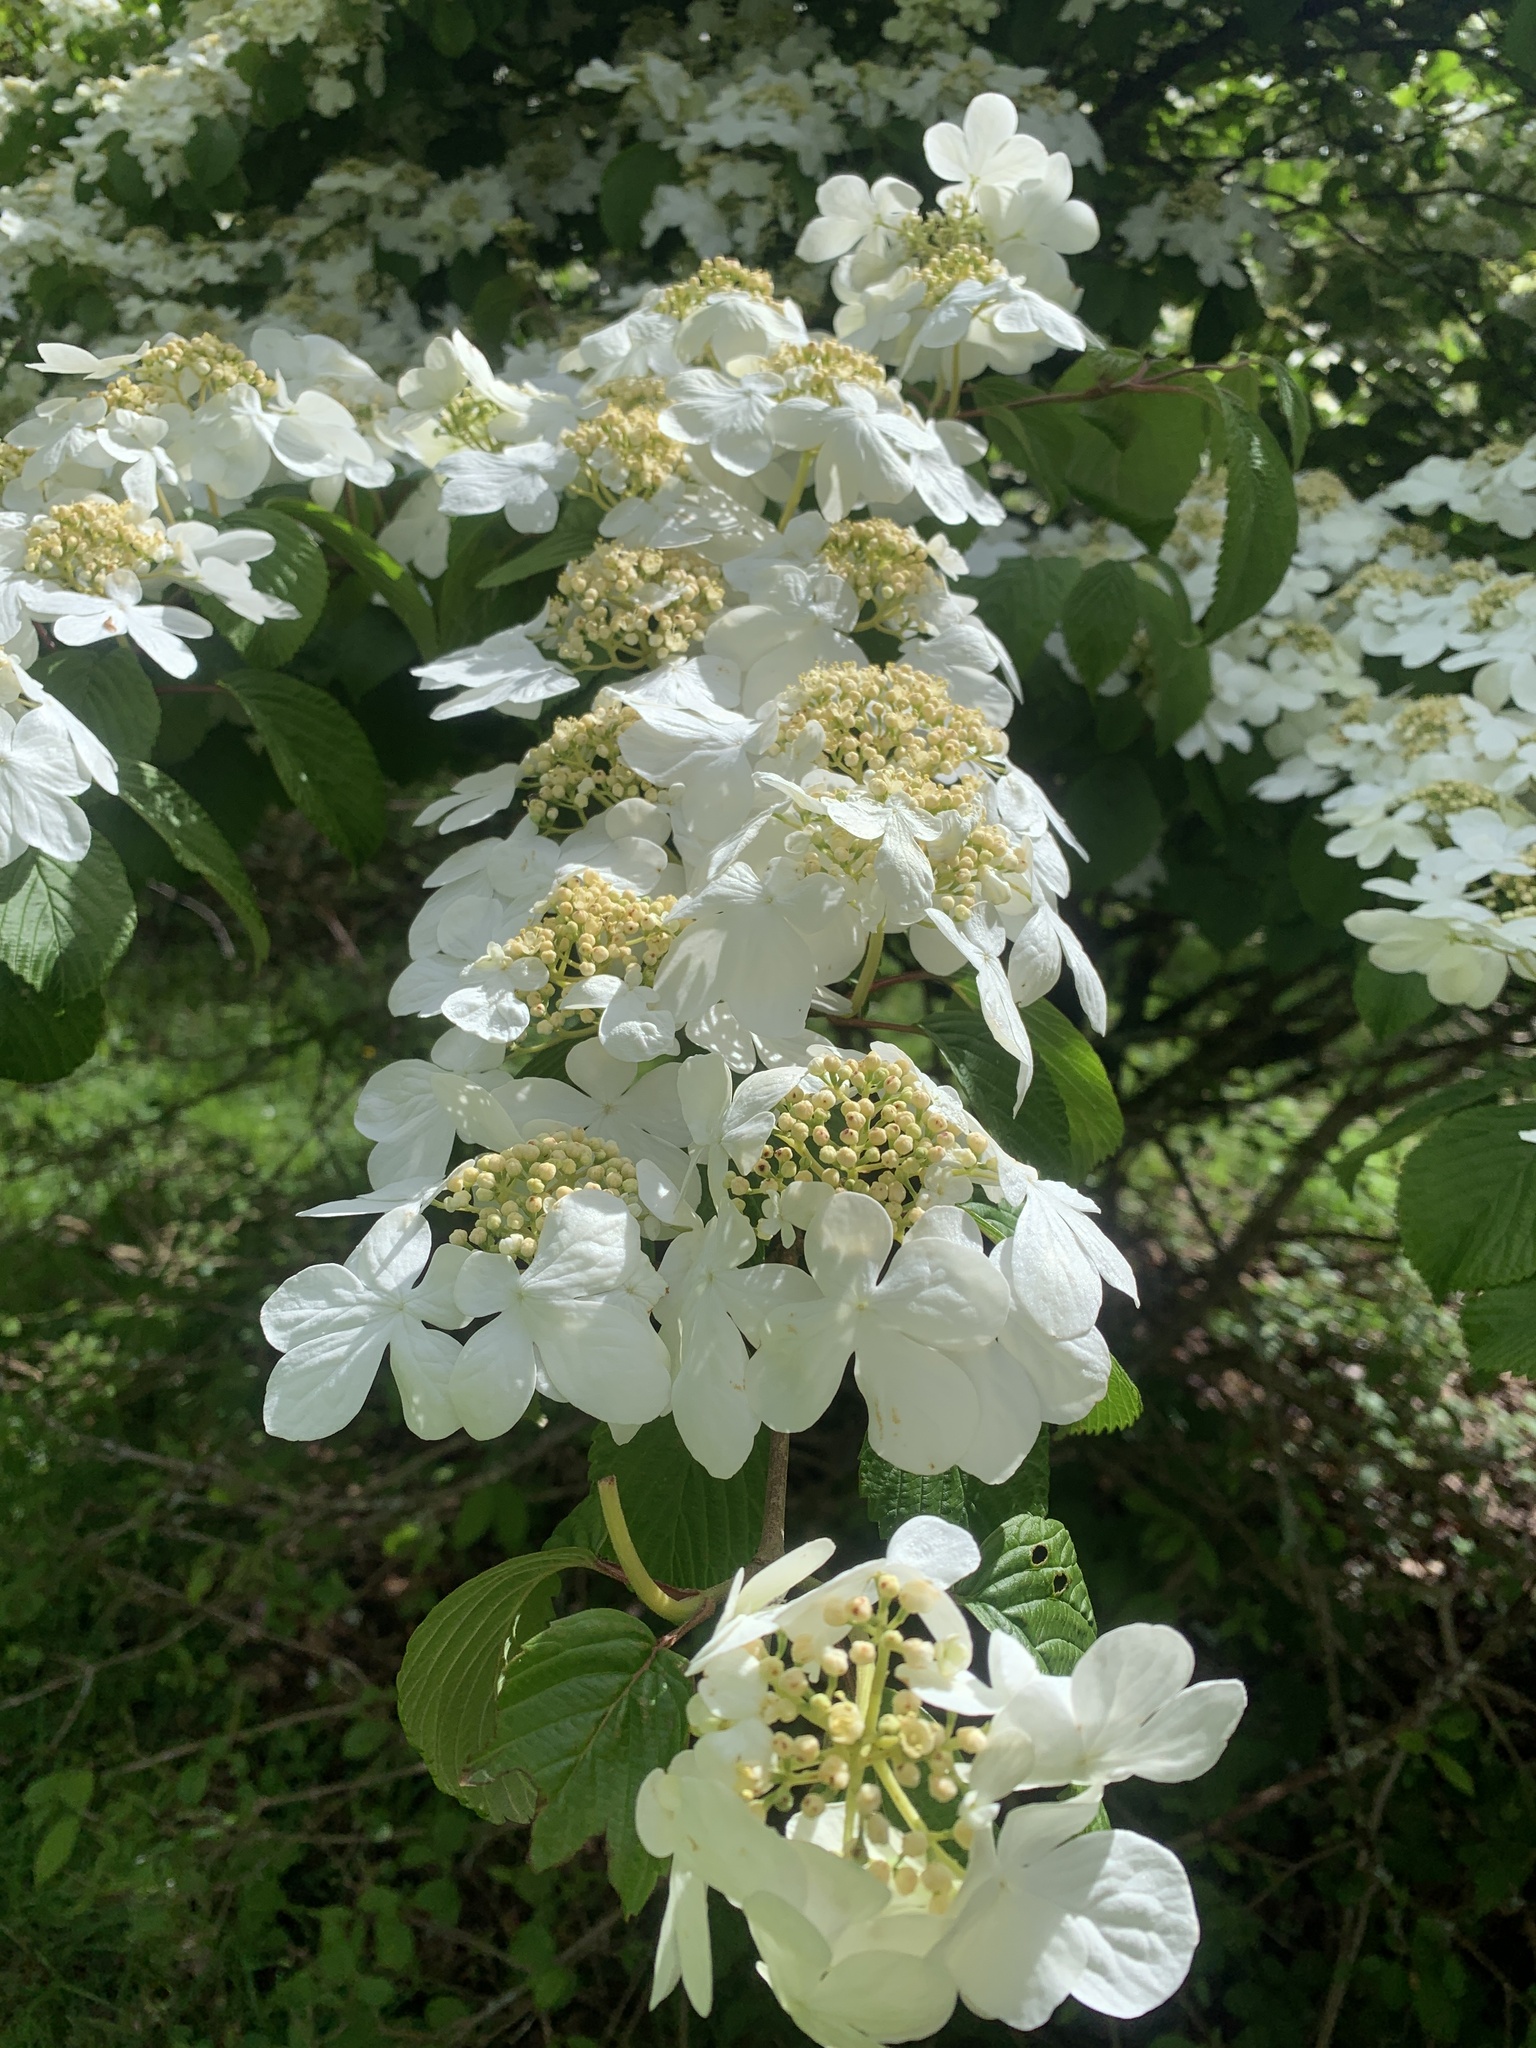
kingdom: Plantae
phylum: Tracheophyta
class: Magnoliopsida
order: Dipsacales
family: Viburnaceae
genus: Viburnum
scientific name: Viburnum plicatum
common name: Japanese snowball
